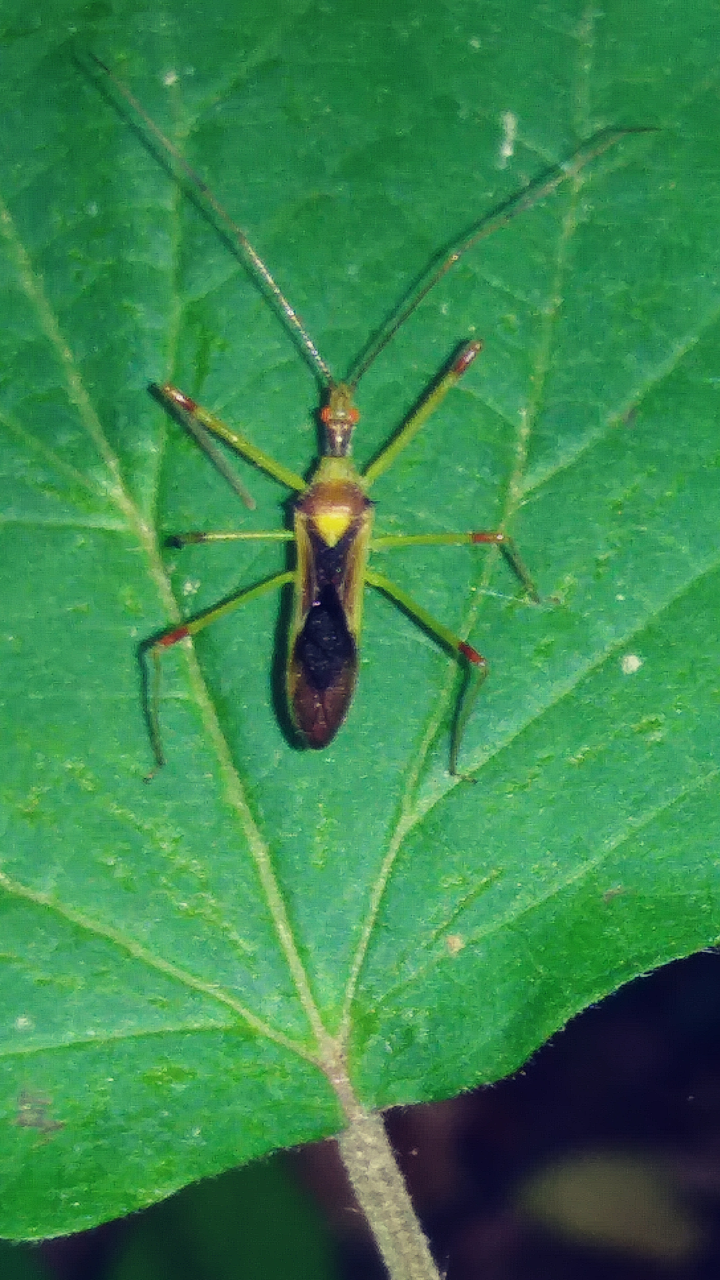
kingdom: Animalia
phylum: Arthropoda
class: Insecta
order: Hemiptera
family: Reduviidae
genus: Zelus
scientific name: Zelus luridus
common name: Pale green assassin bug
